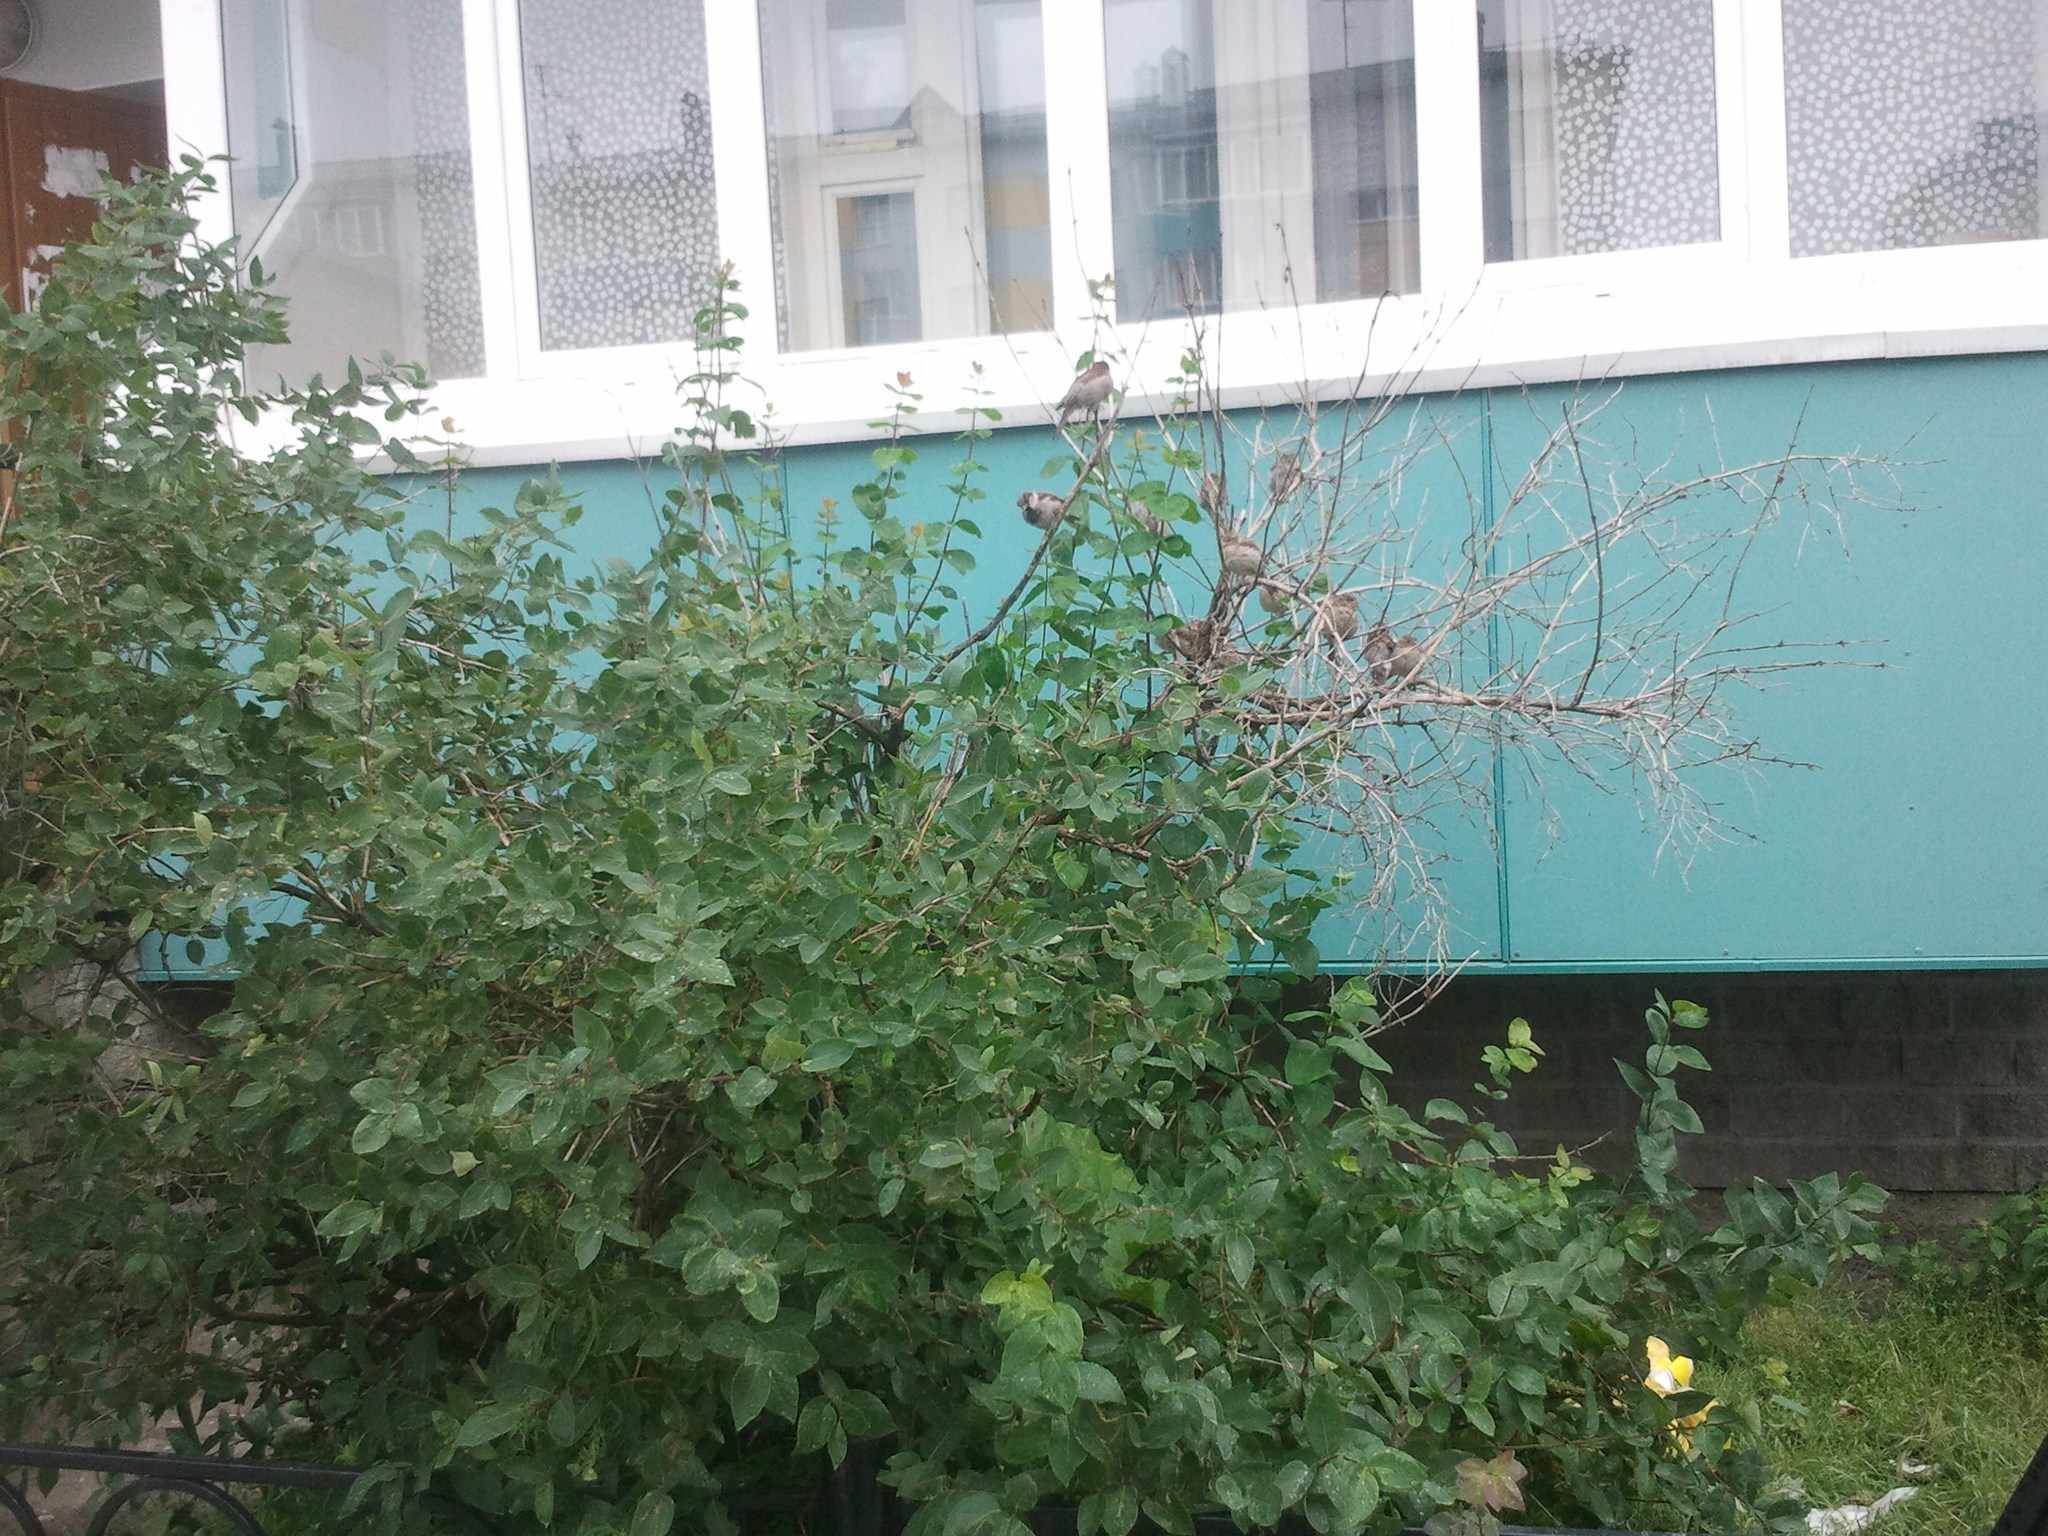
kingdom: Animalia
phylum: Chordata
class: Aves
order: Passeriformes
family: Passeridae
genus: Passer
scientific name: Passer domesticus
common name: House sparrow
